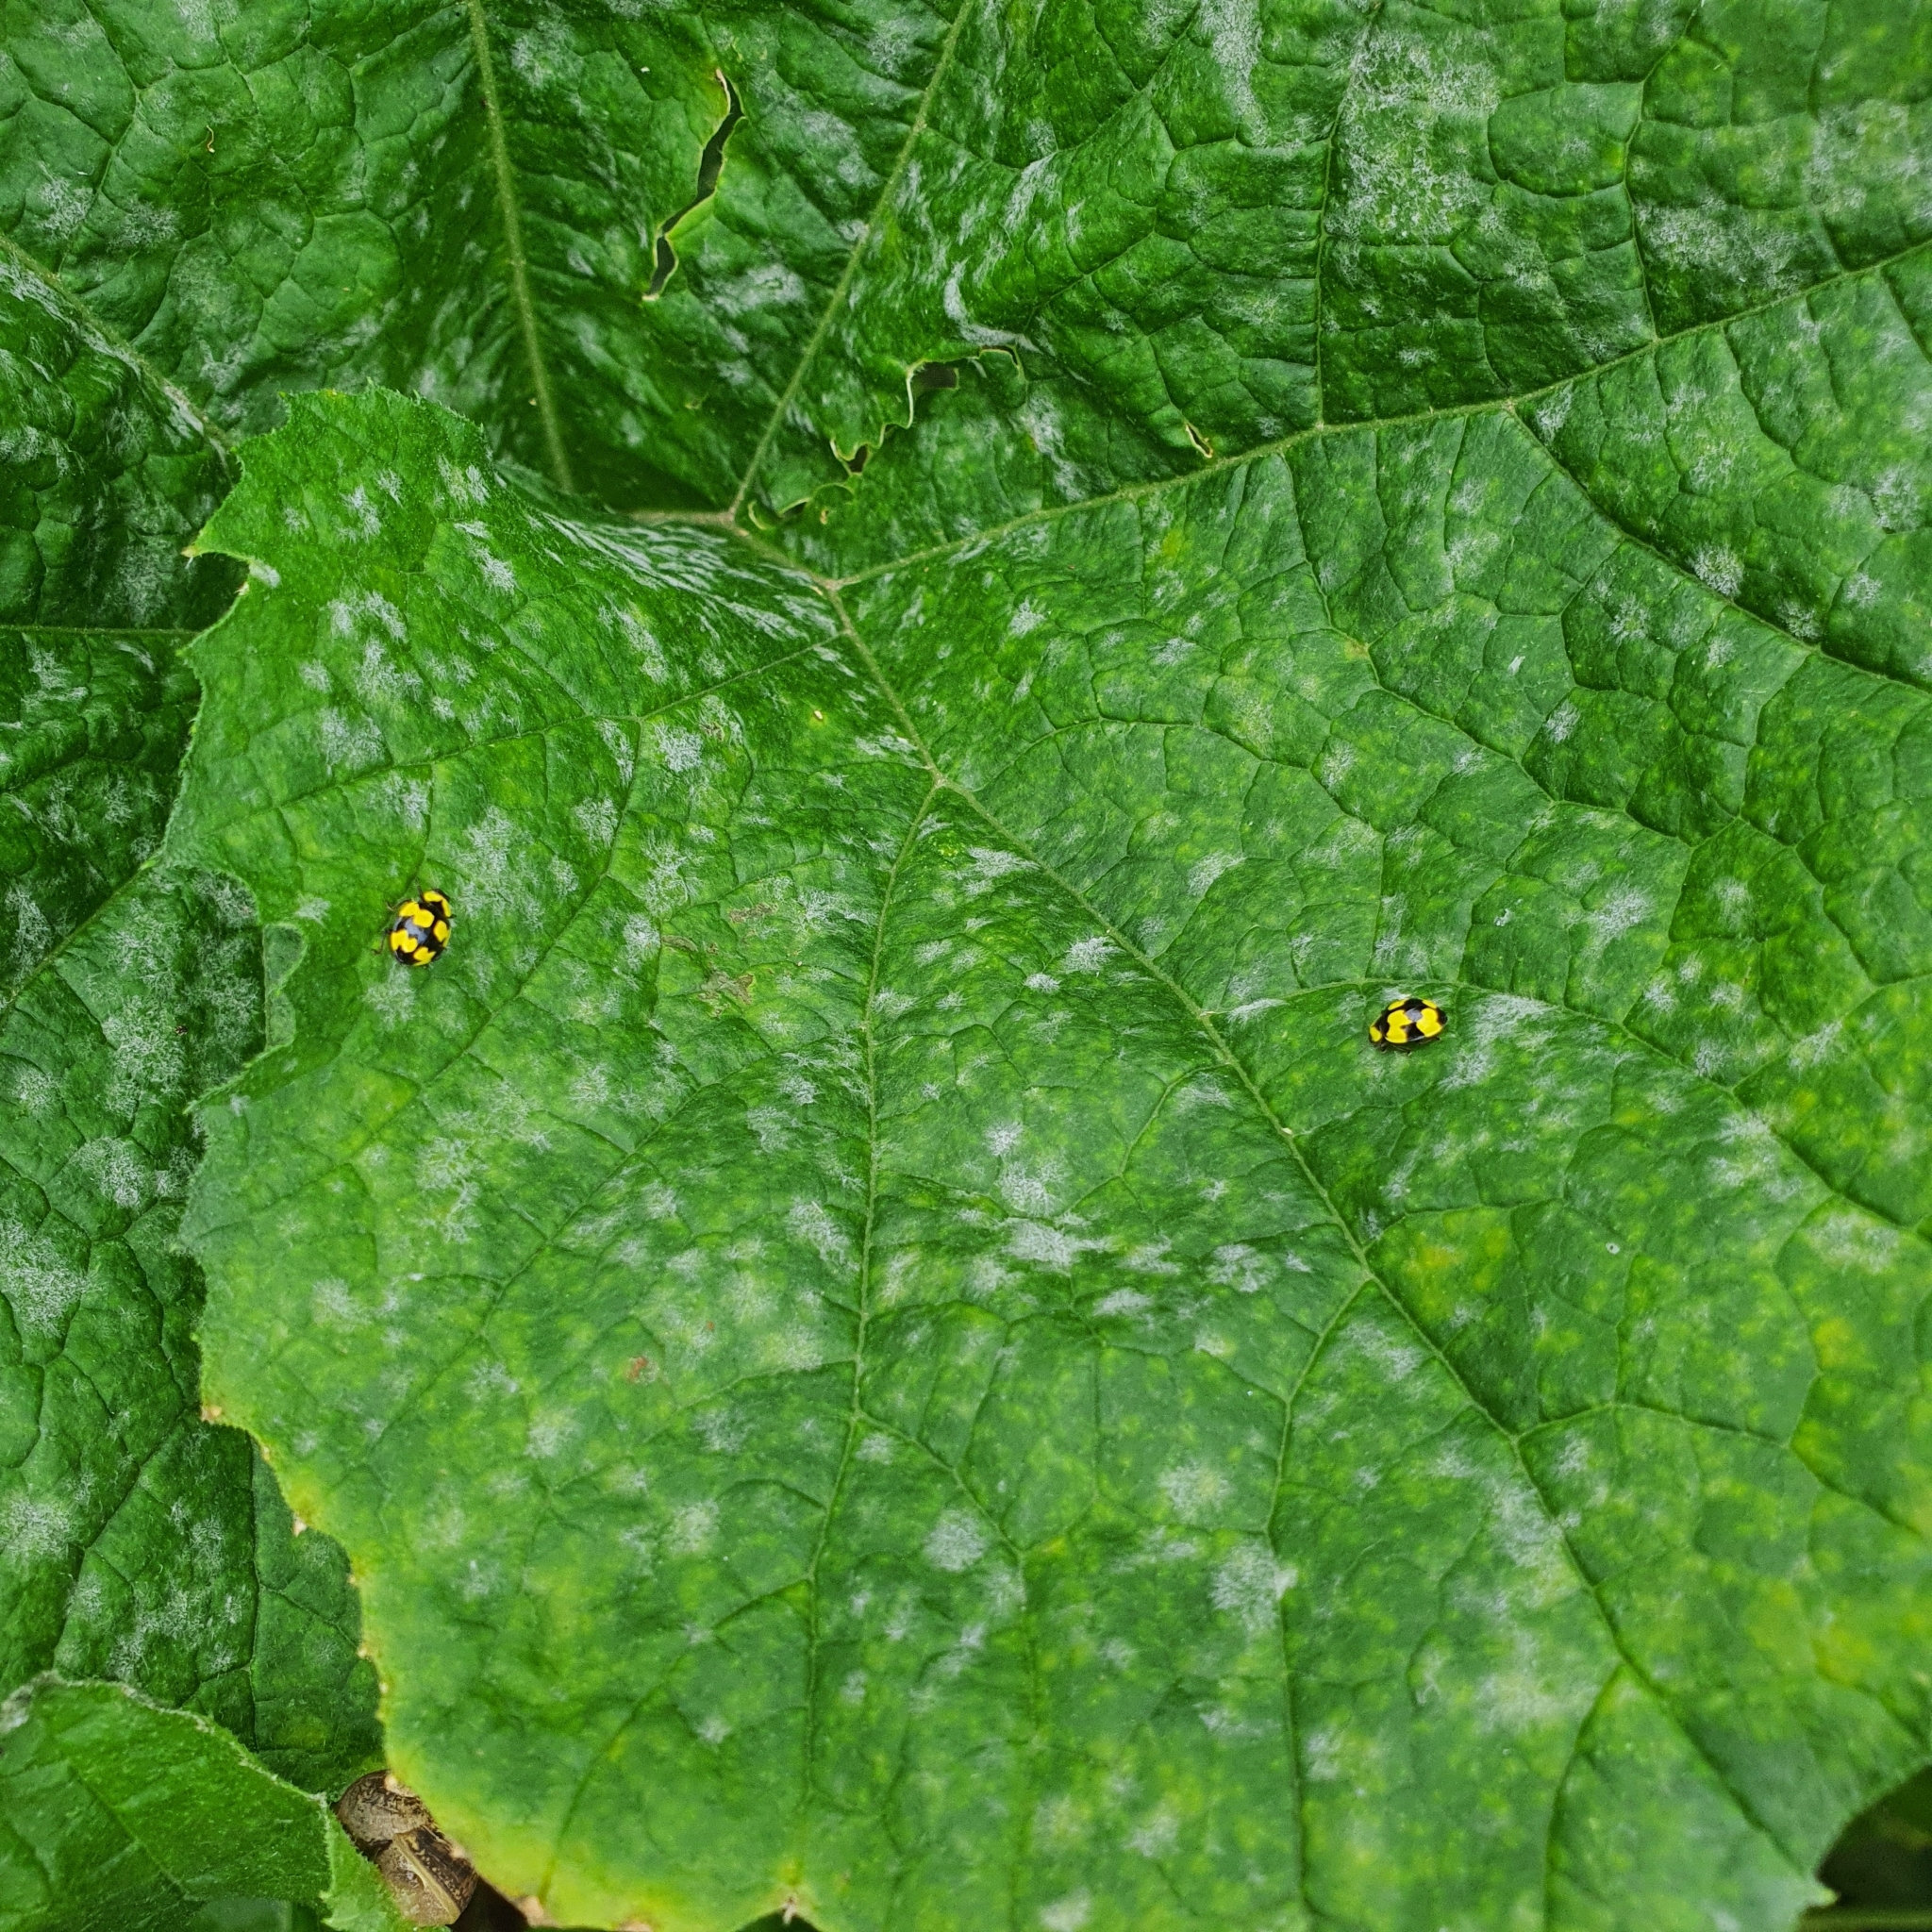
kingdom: Animalia
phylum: Arthropoda
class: Insecta
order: Coleoptera
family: Coccinellidae
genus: Illeis
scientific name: Illeis galbula
